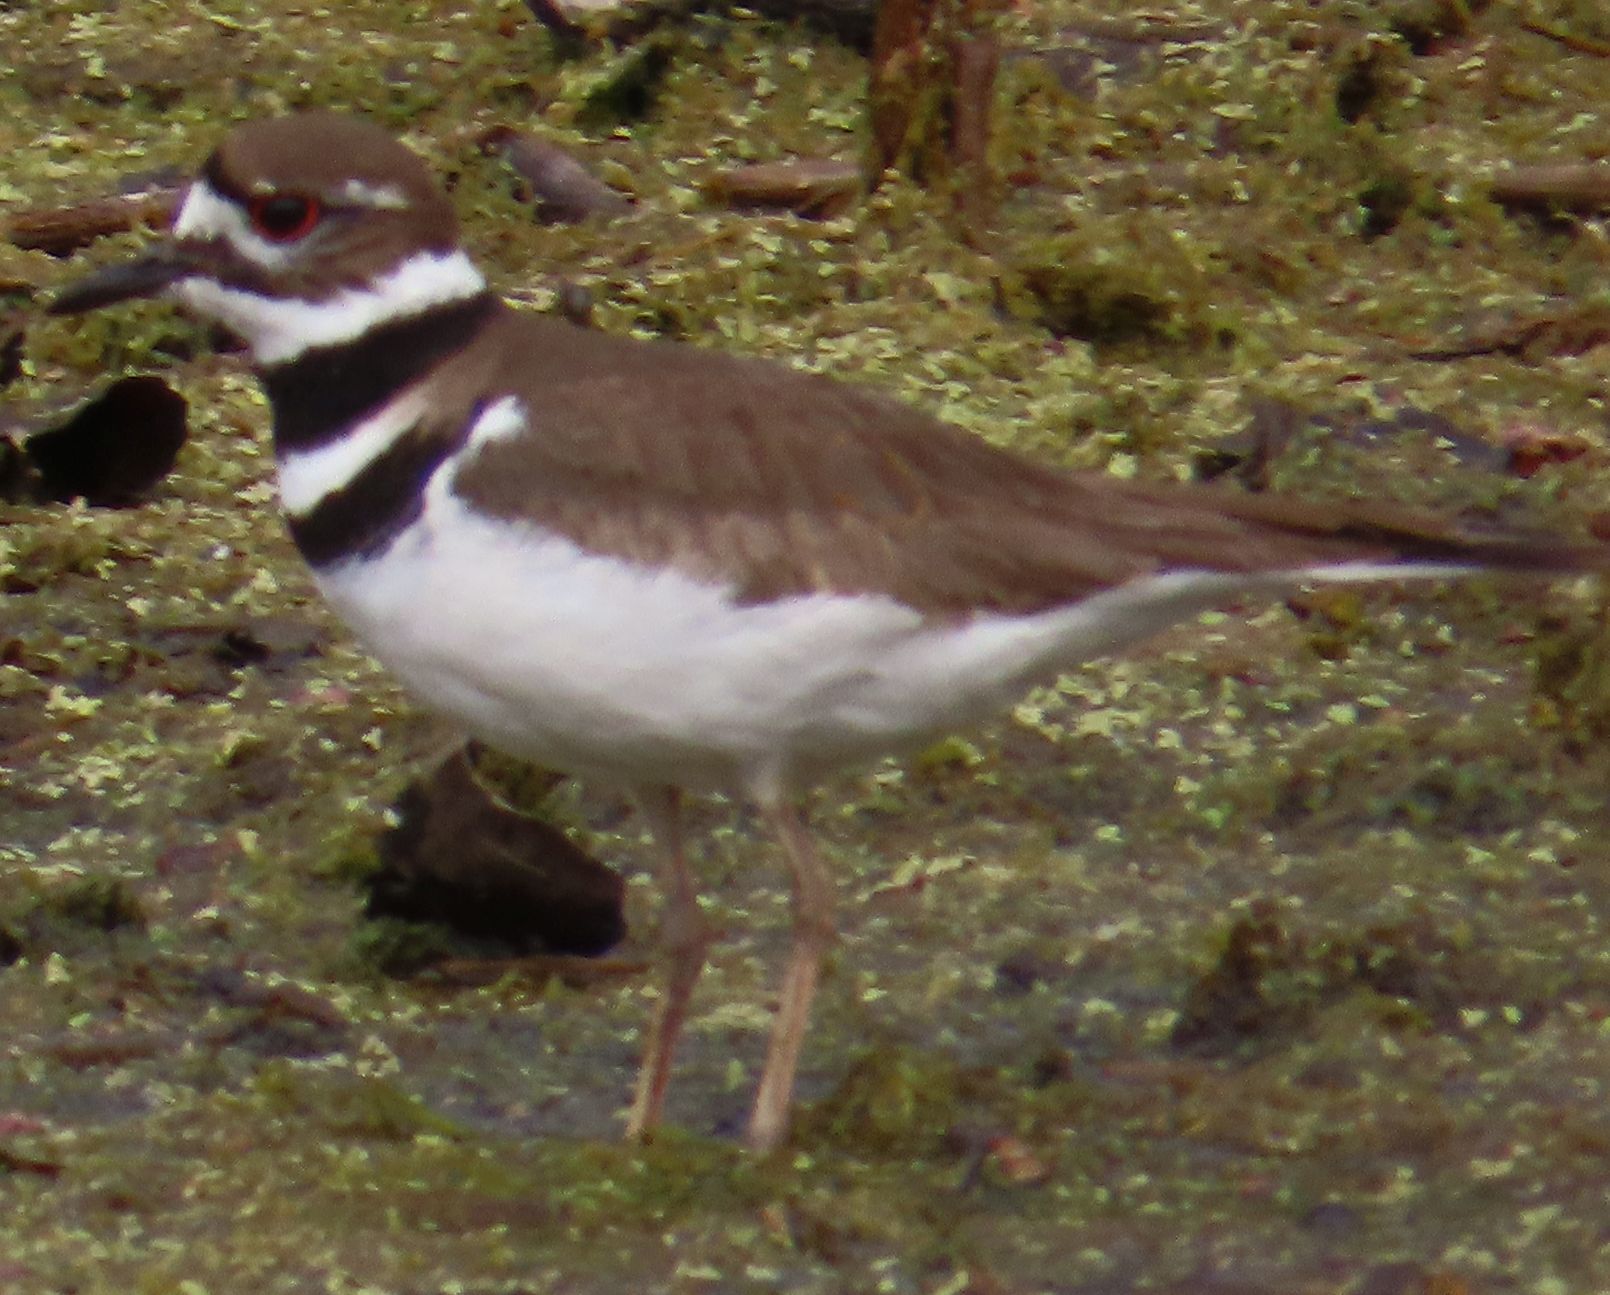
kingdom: Animalia
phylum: Chordata
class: Aves
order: Charadriiformes
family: Charadriidae
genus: Charadrius
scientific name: Charadrius vociferus
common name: Killdeer
